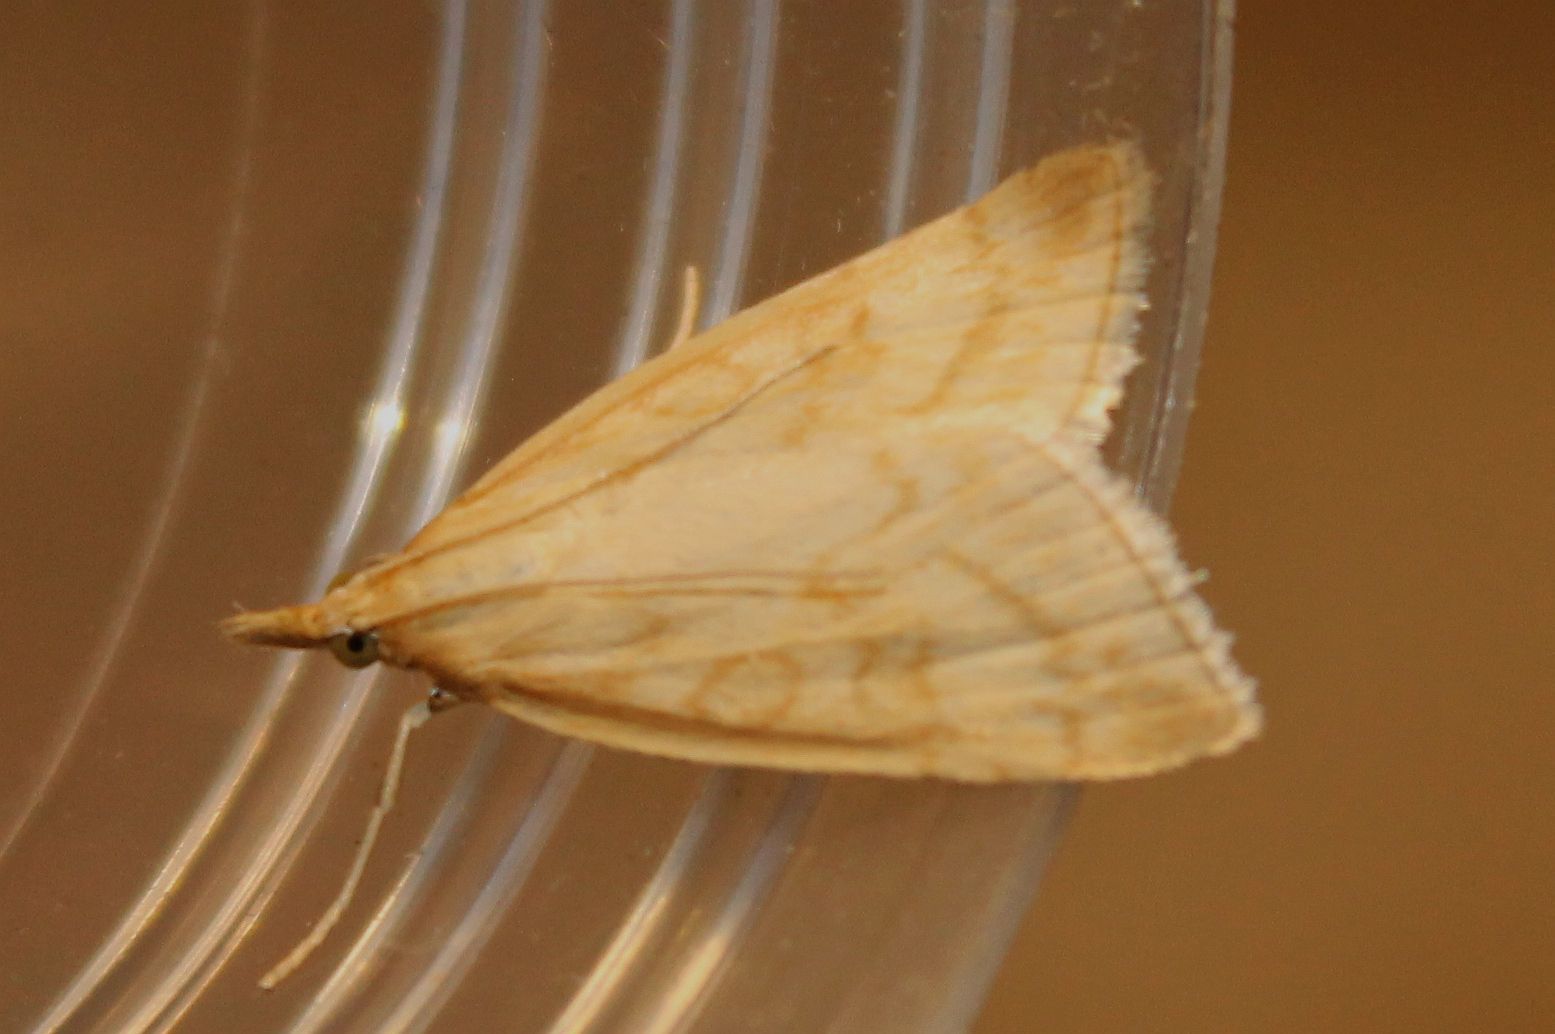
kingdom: Animalia
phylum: Arthropoda
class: Insecta
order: Lepidoptera
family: Crambidae
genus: Udea
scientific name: Udea lutealis
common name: Pale straw pearl
